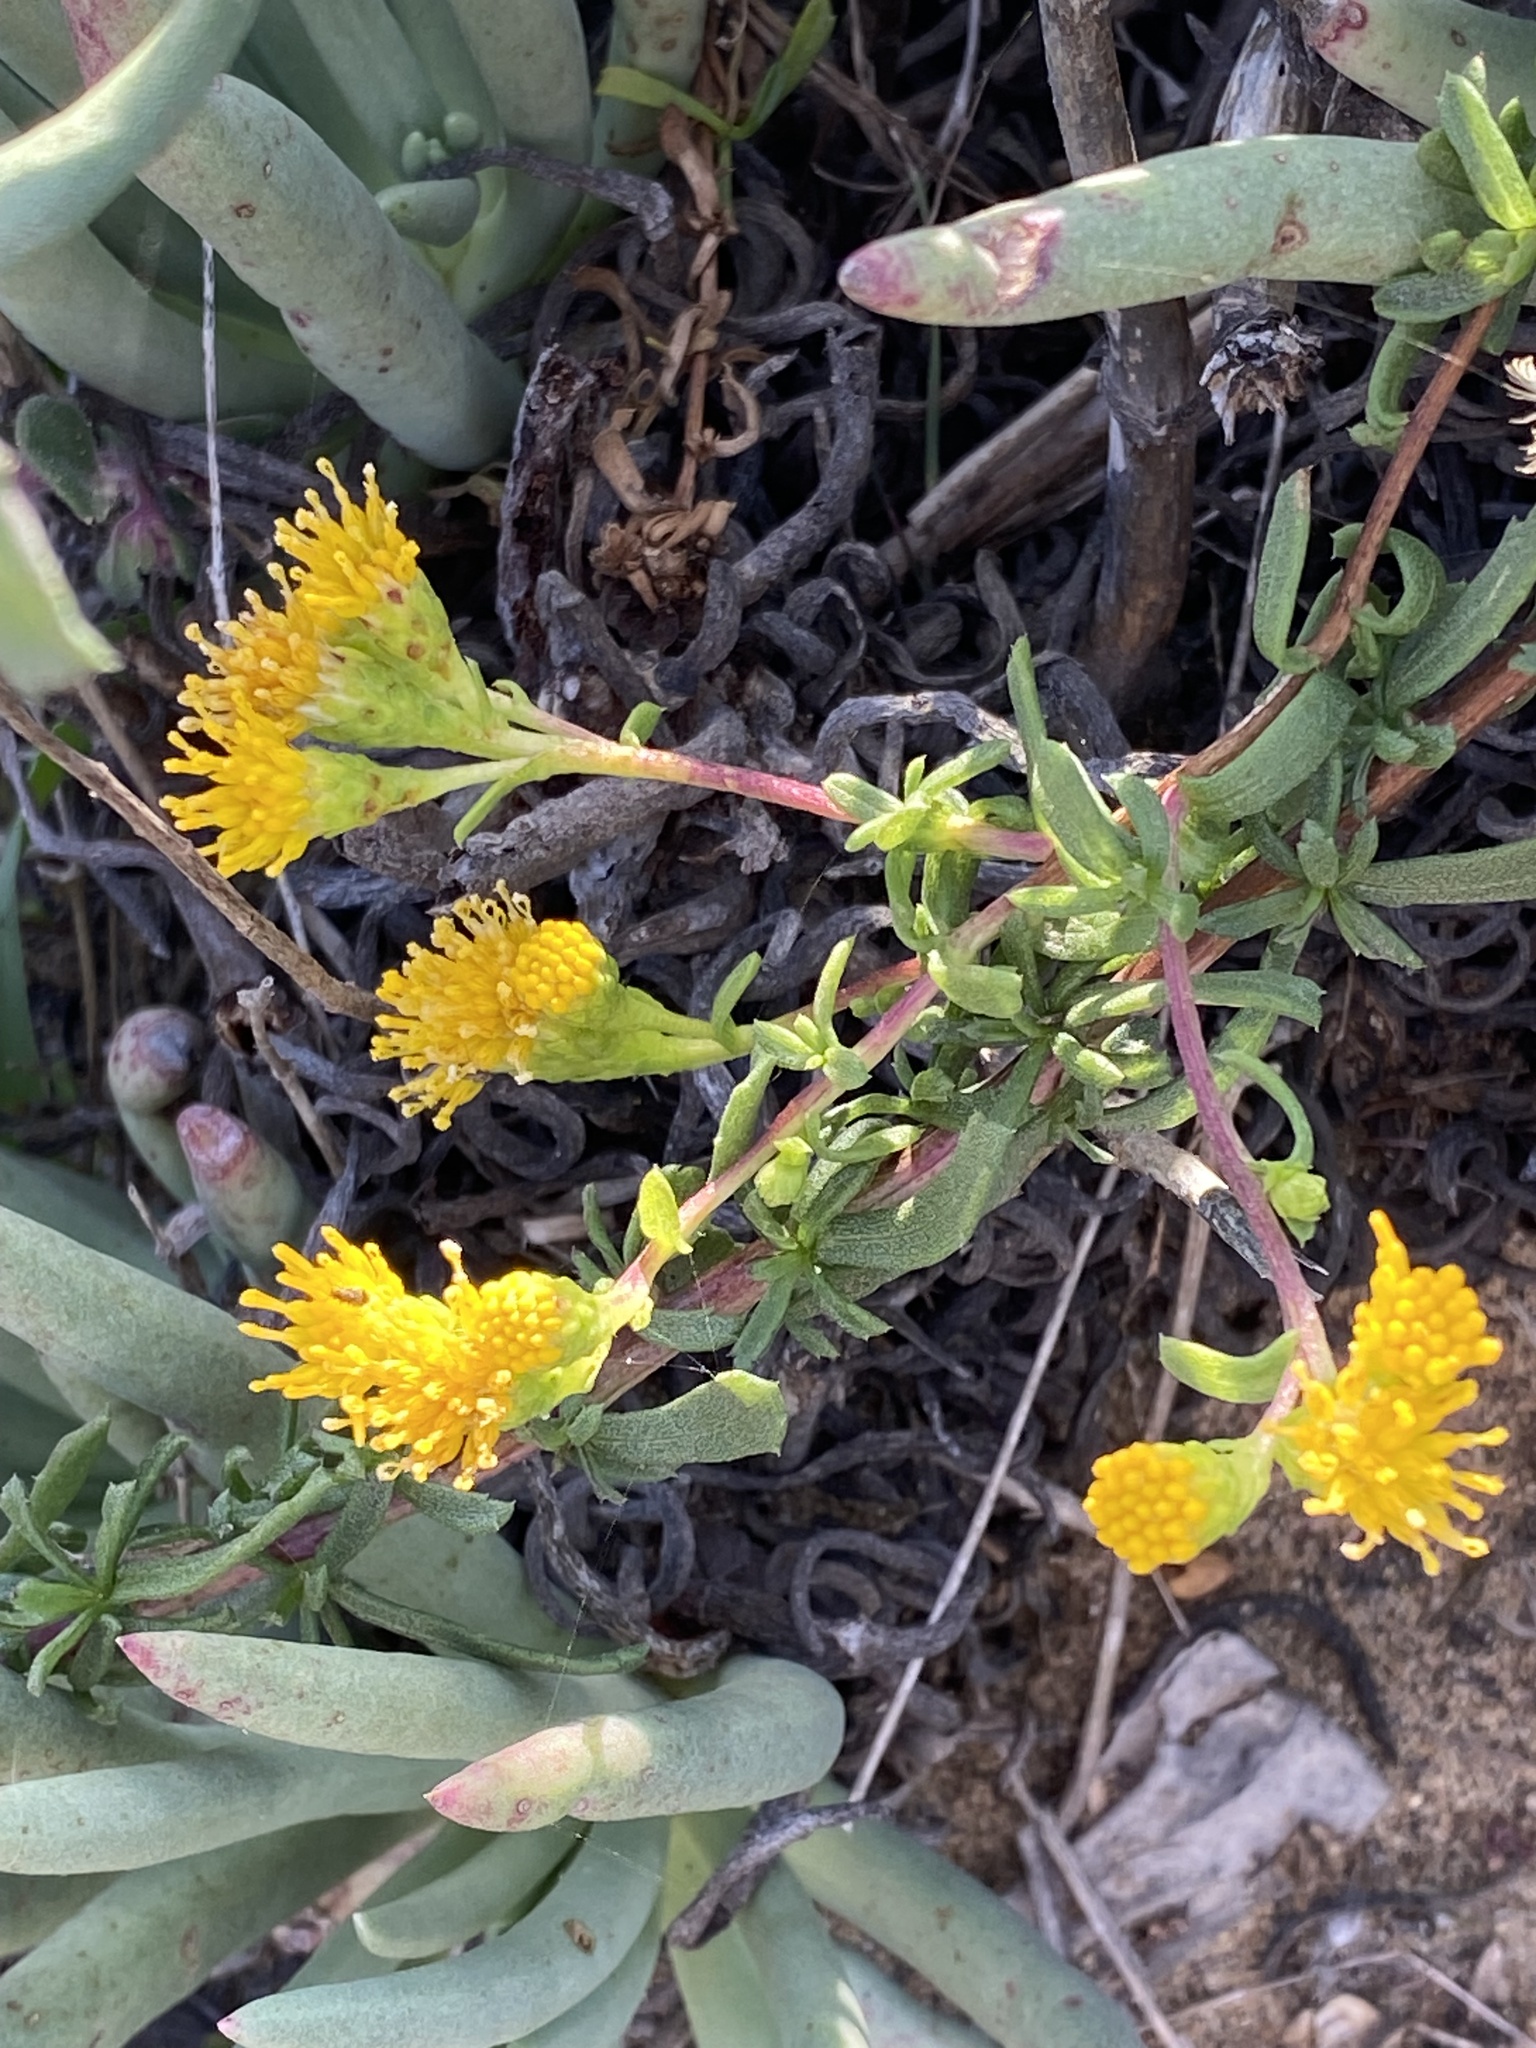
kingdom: Plantae
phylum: Tracheophyta
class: Magnoliopsida
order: Asterales
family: Asteraceae
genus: Isocoma
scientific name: Isocoma menziesii
